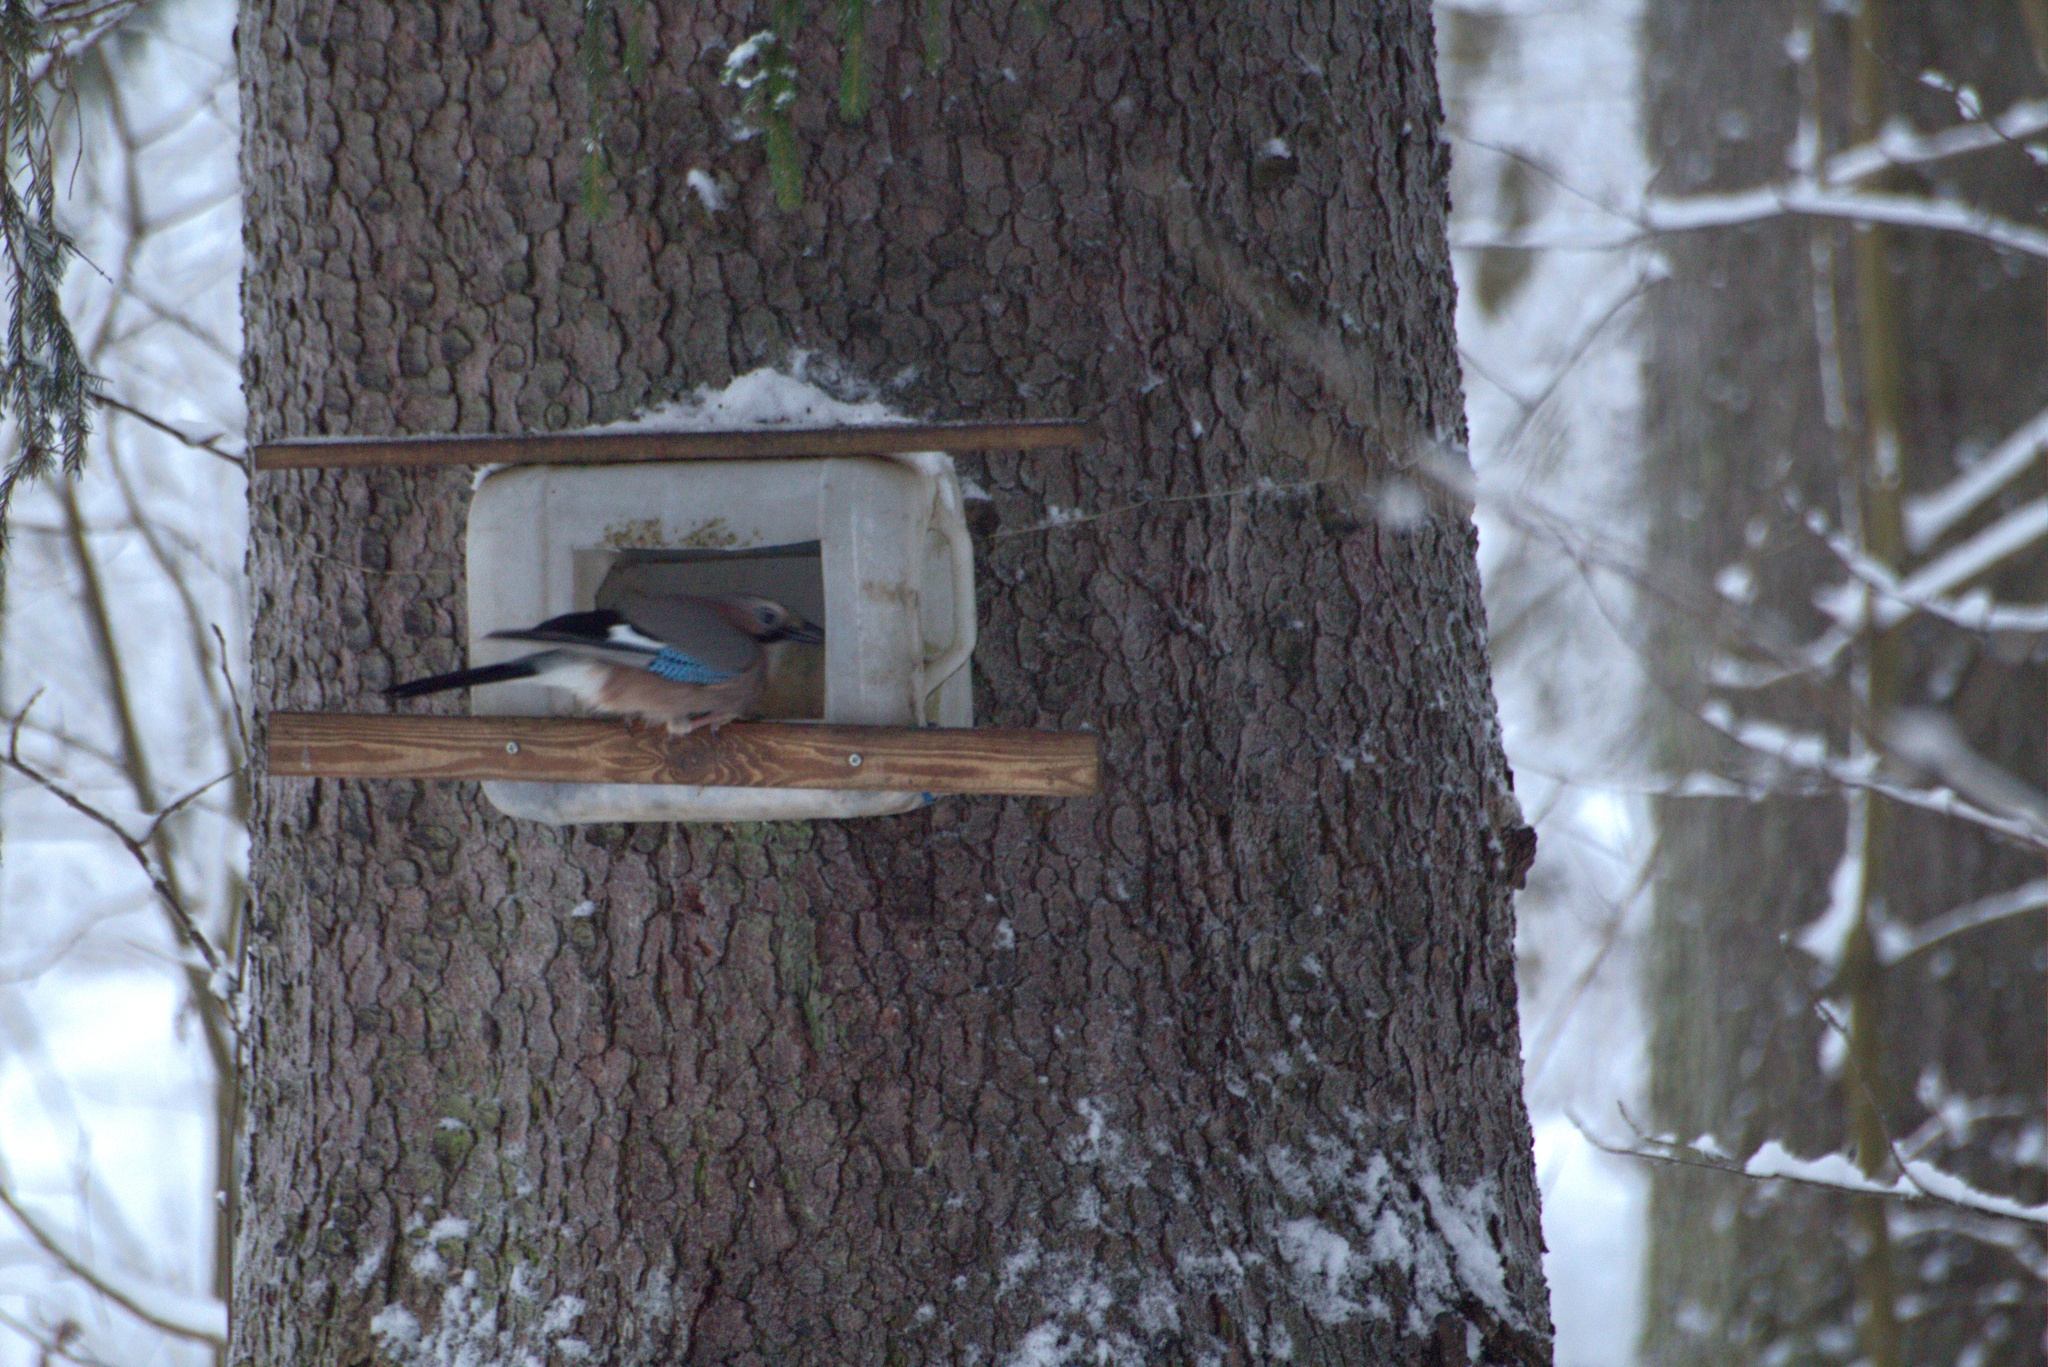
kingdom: Animalia
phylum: Chordata
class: Aves
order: Passeriformes
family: Corvidae
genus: Garrulus
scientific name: Garrulus glandarius
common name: Eurasian jay
